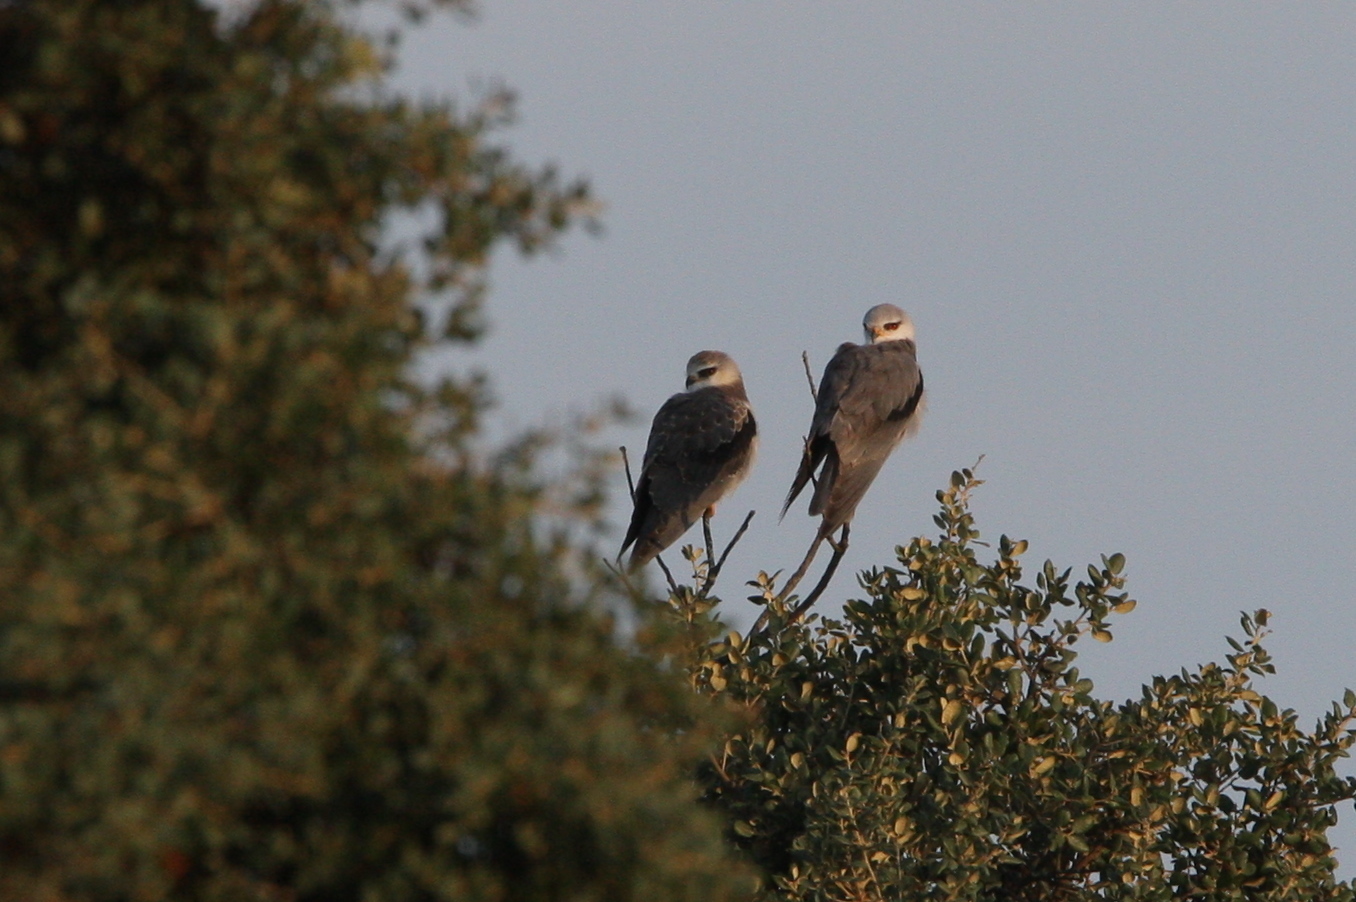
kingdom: Animalia
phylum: Chordata
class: Aves
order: Accipitriformes
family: Accipitridae
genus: Elanus
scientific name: Elanus caeruleus
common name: Black-winged kite
